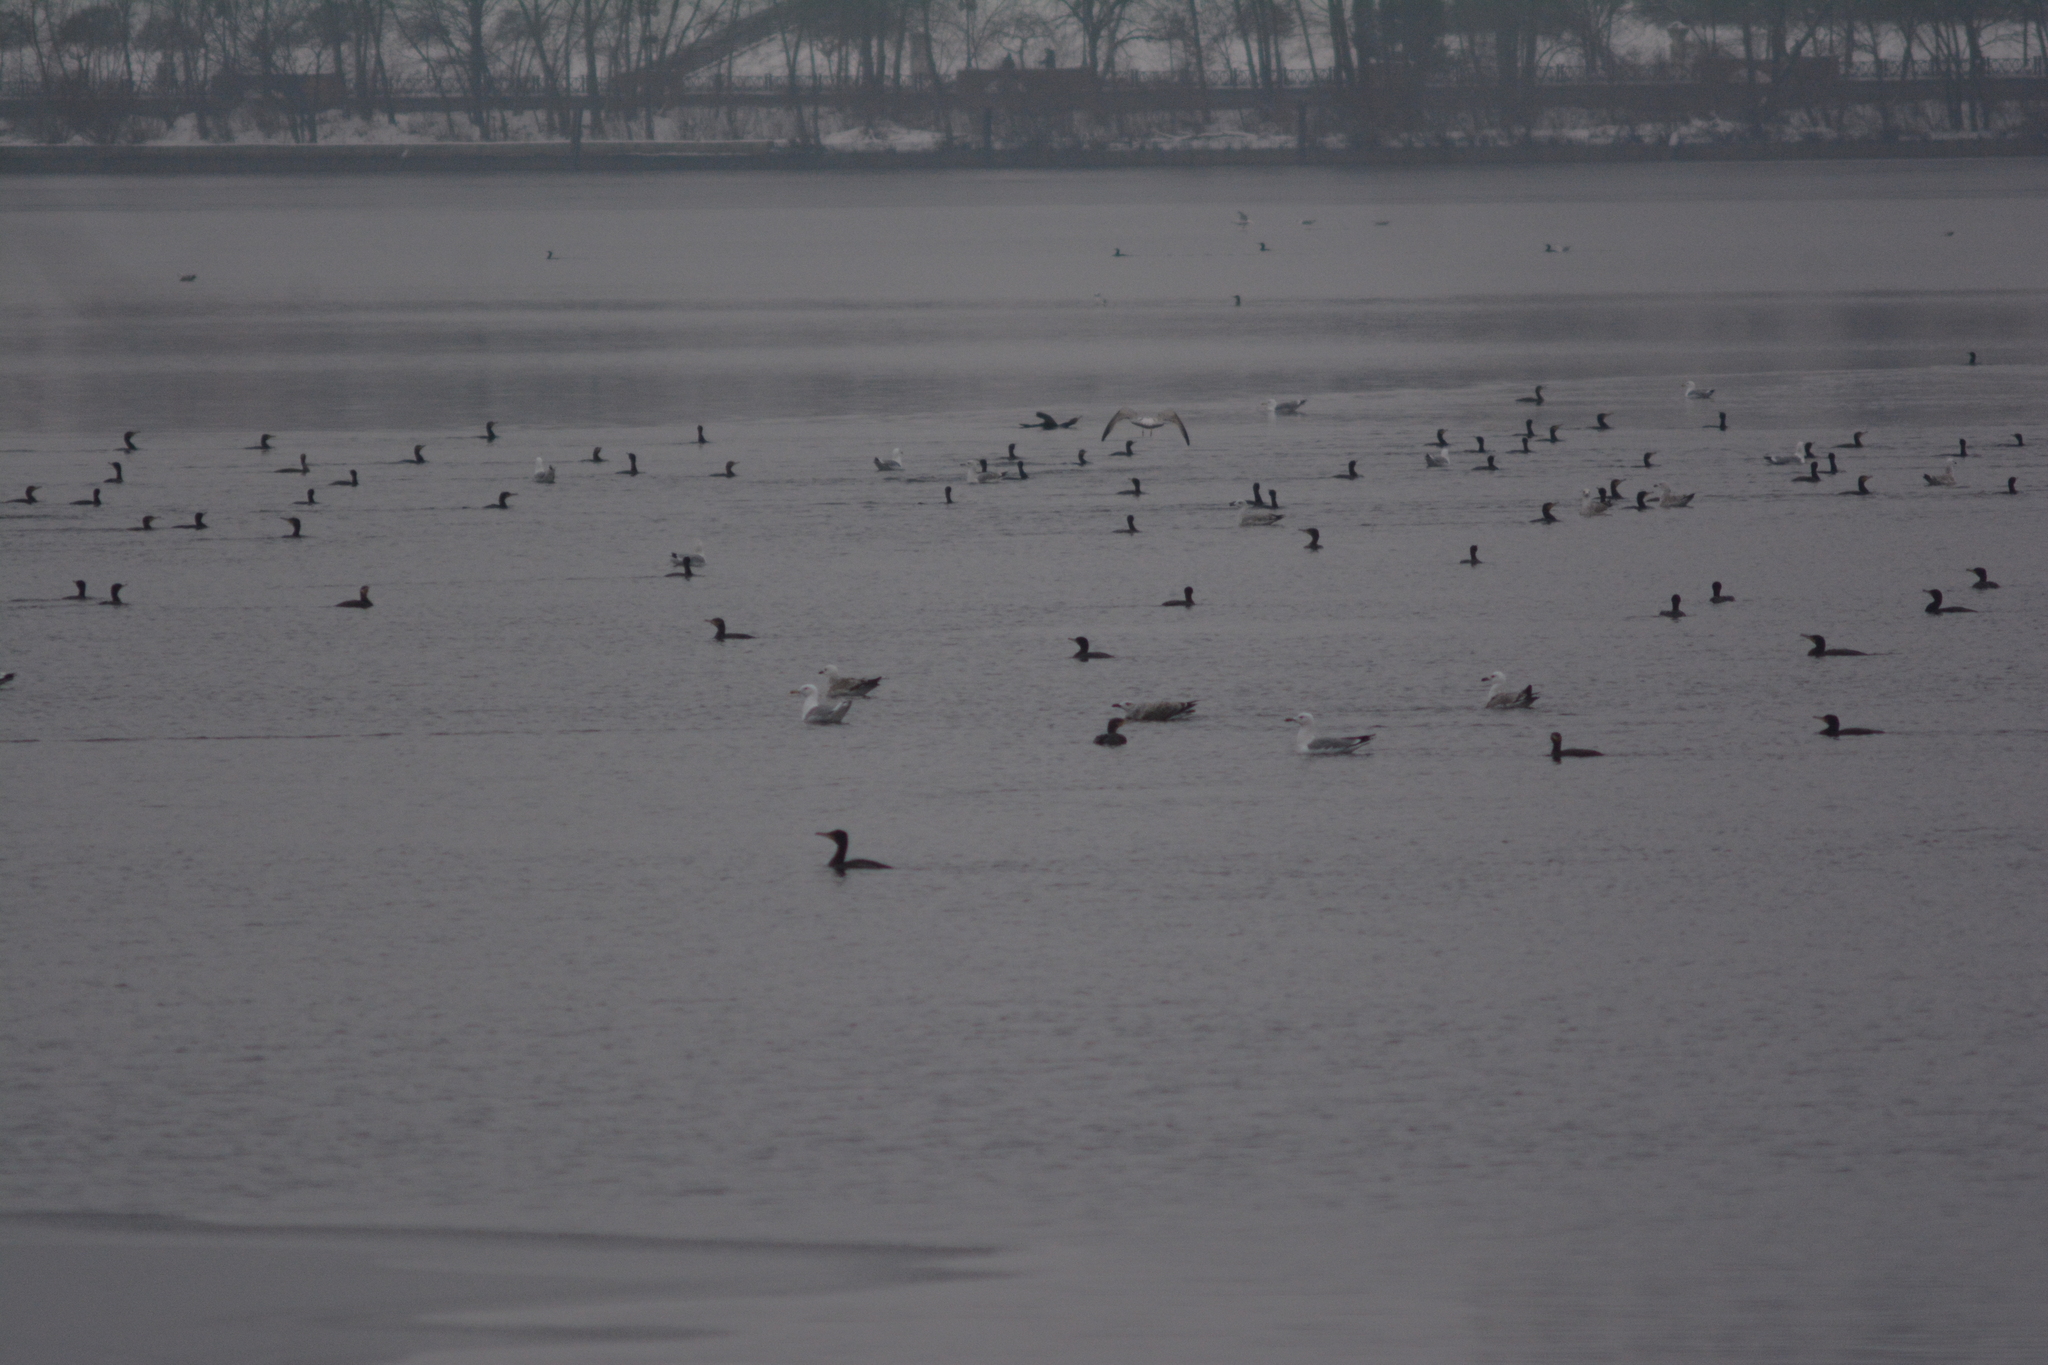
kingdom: Animalia
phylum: Chordata
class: Aves
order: Suliformes
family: Phalacrocoracidae
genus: Phalacrocorax
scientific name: Phalacrocorax carbo
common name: Great cormorant
